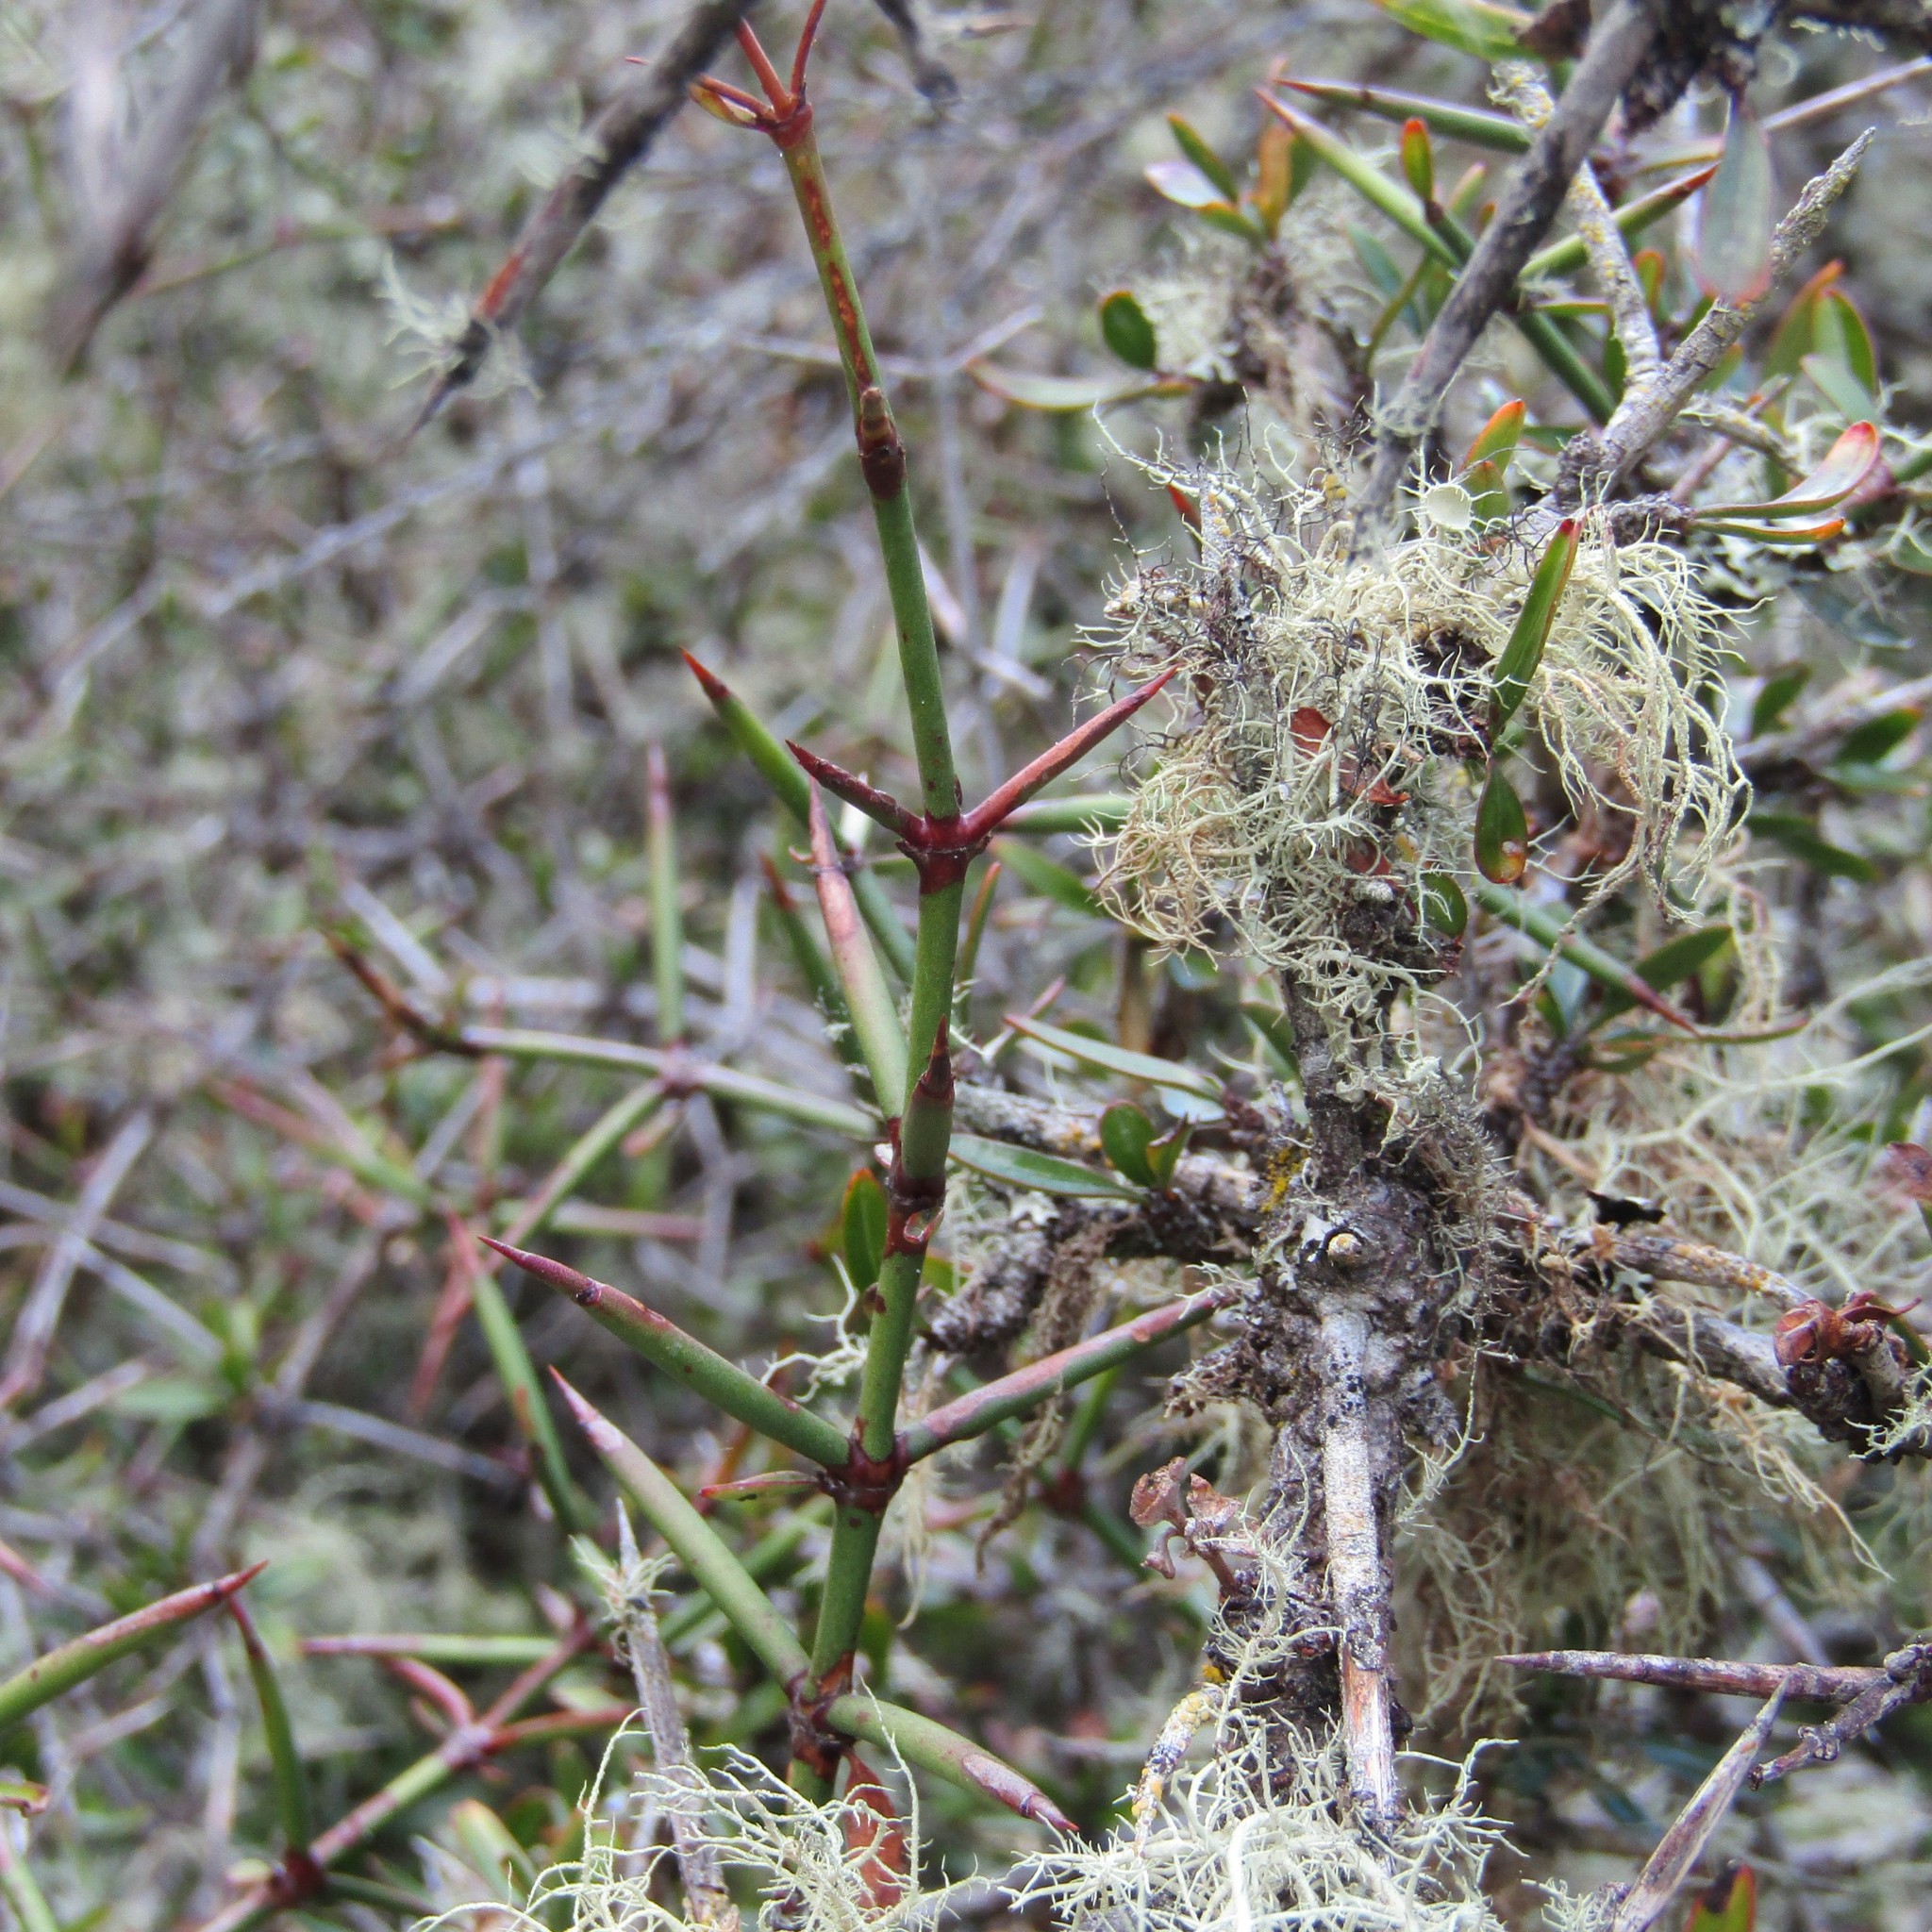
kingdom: Plantae
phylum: Tracheophyta
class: Magnoliopsida
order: Rosales
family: Rhamnaceae
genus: Discaria
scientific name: Discaria toumatou
